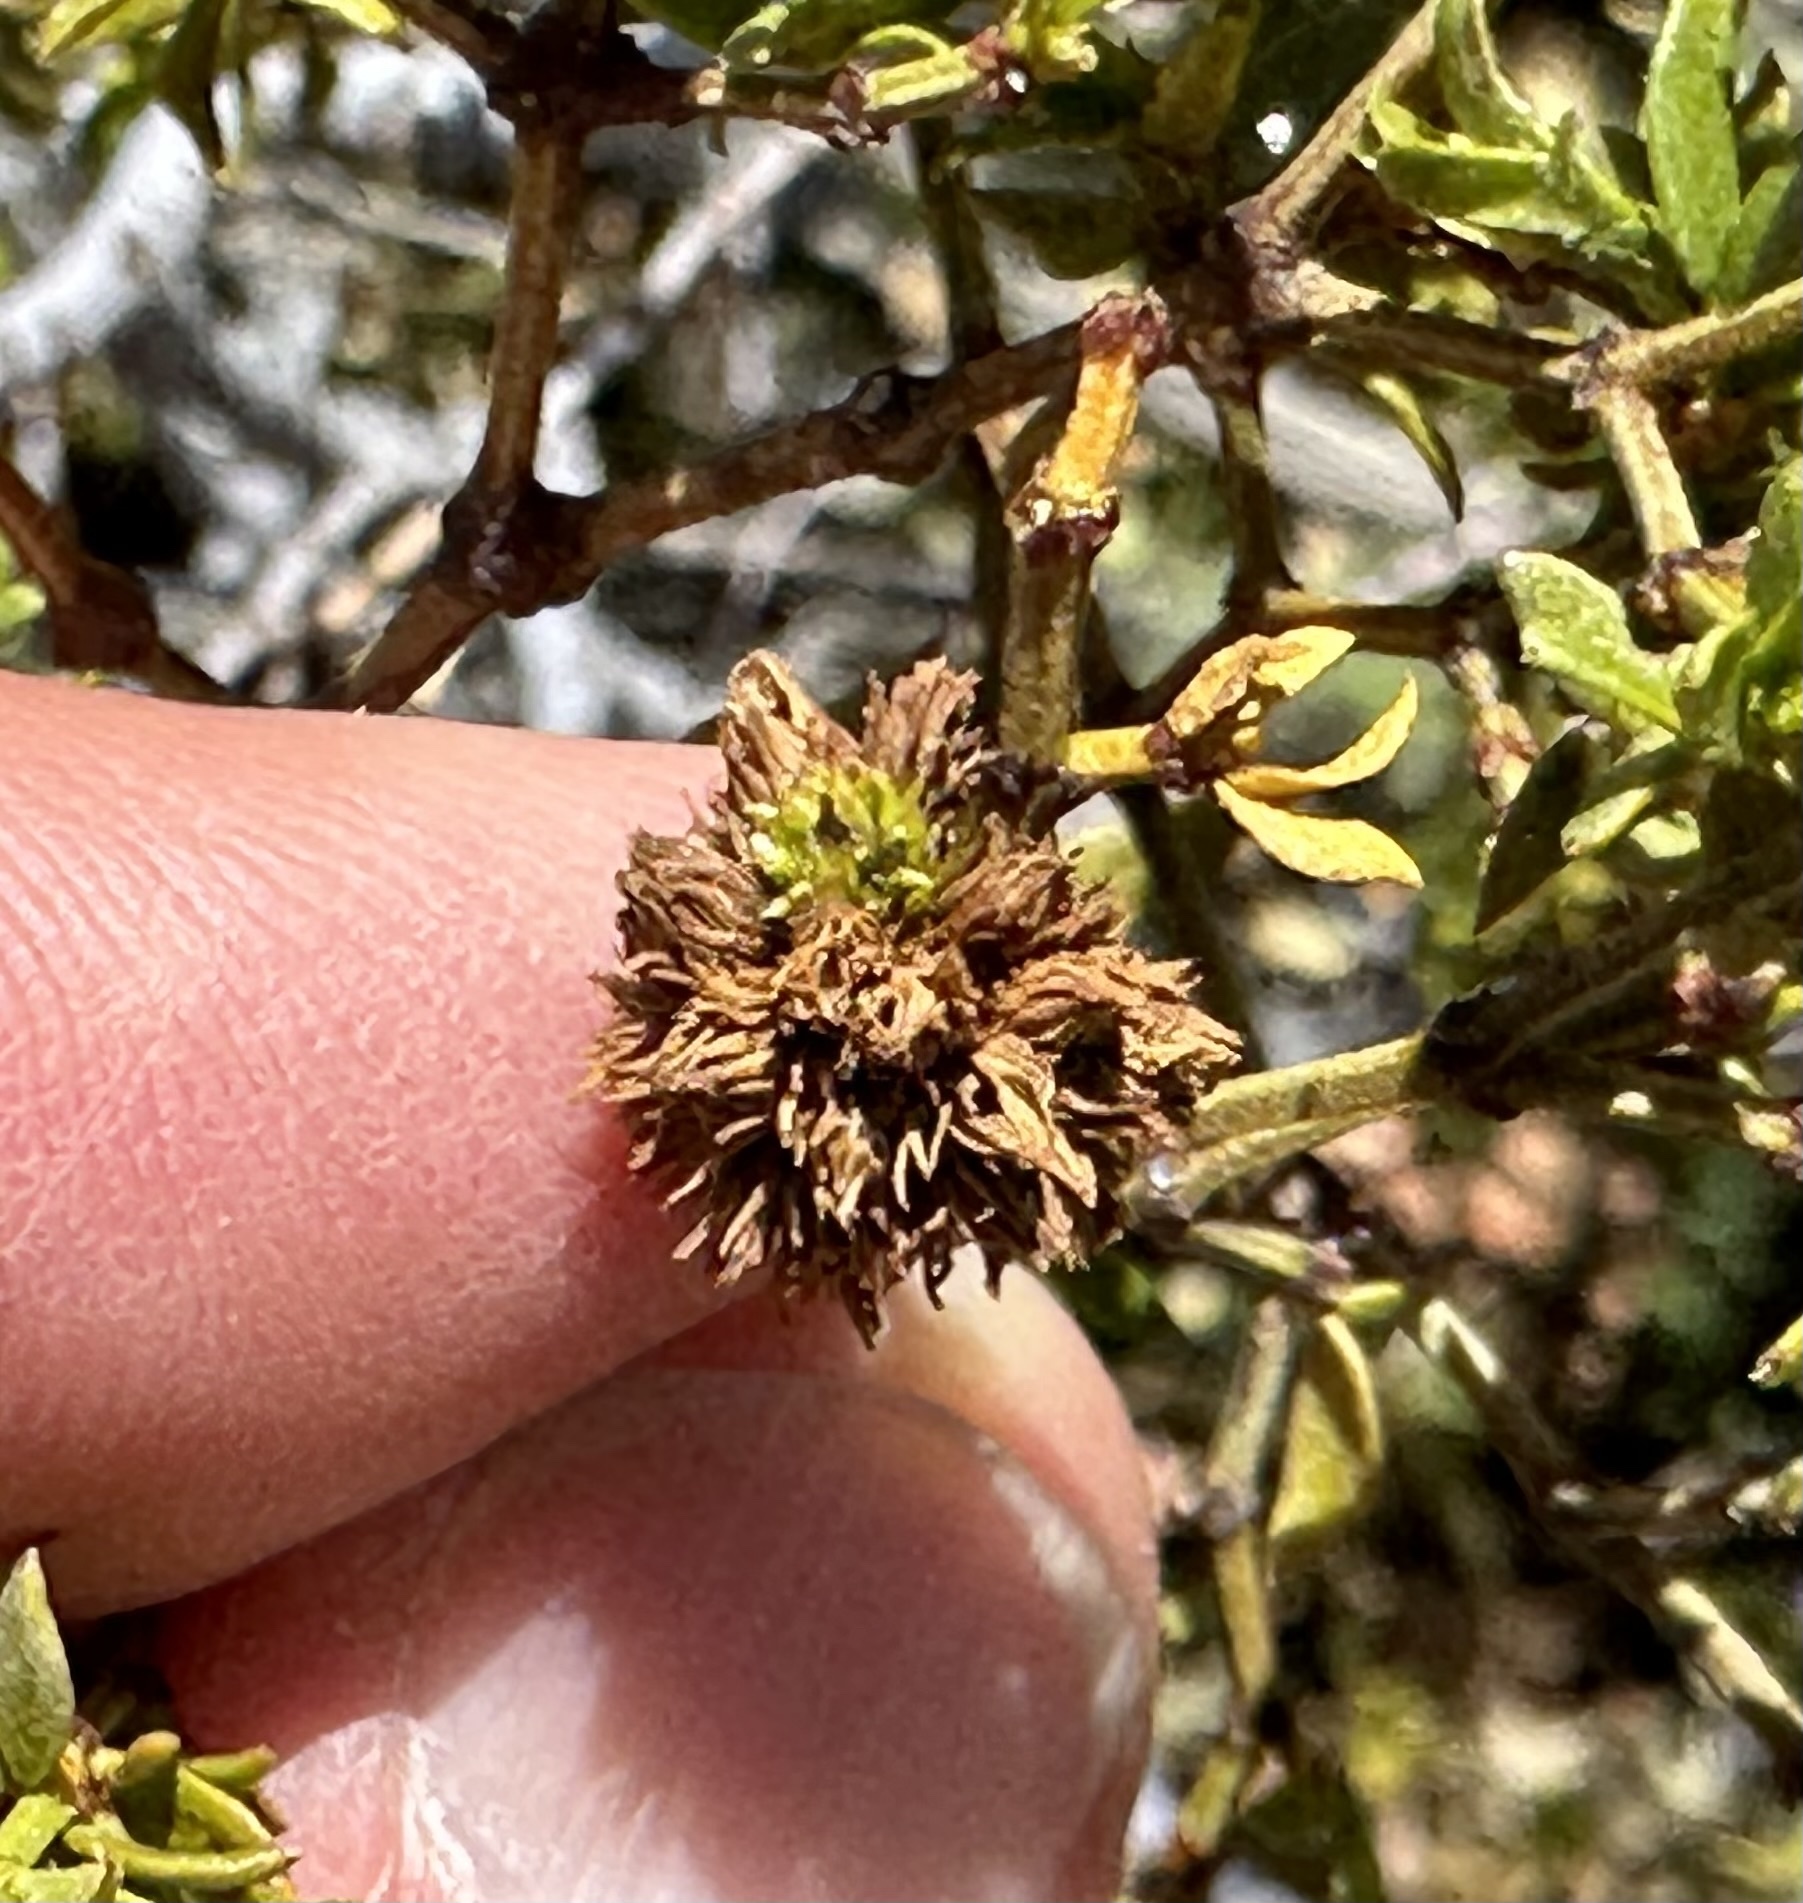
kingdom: Animalia
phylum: Arthropoda
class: Insecta
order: Diptera
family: Cecidomyiidae
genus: Asphondylia
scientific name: Asphondylia auripila
